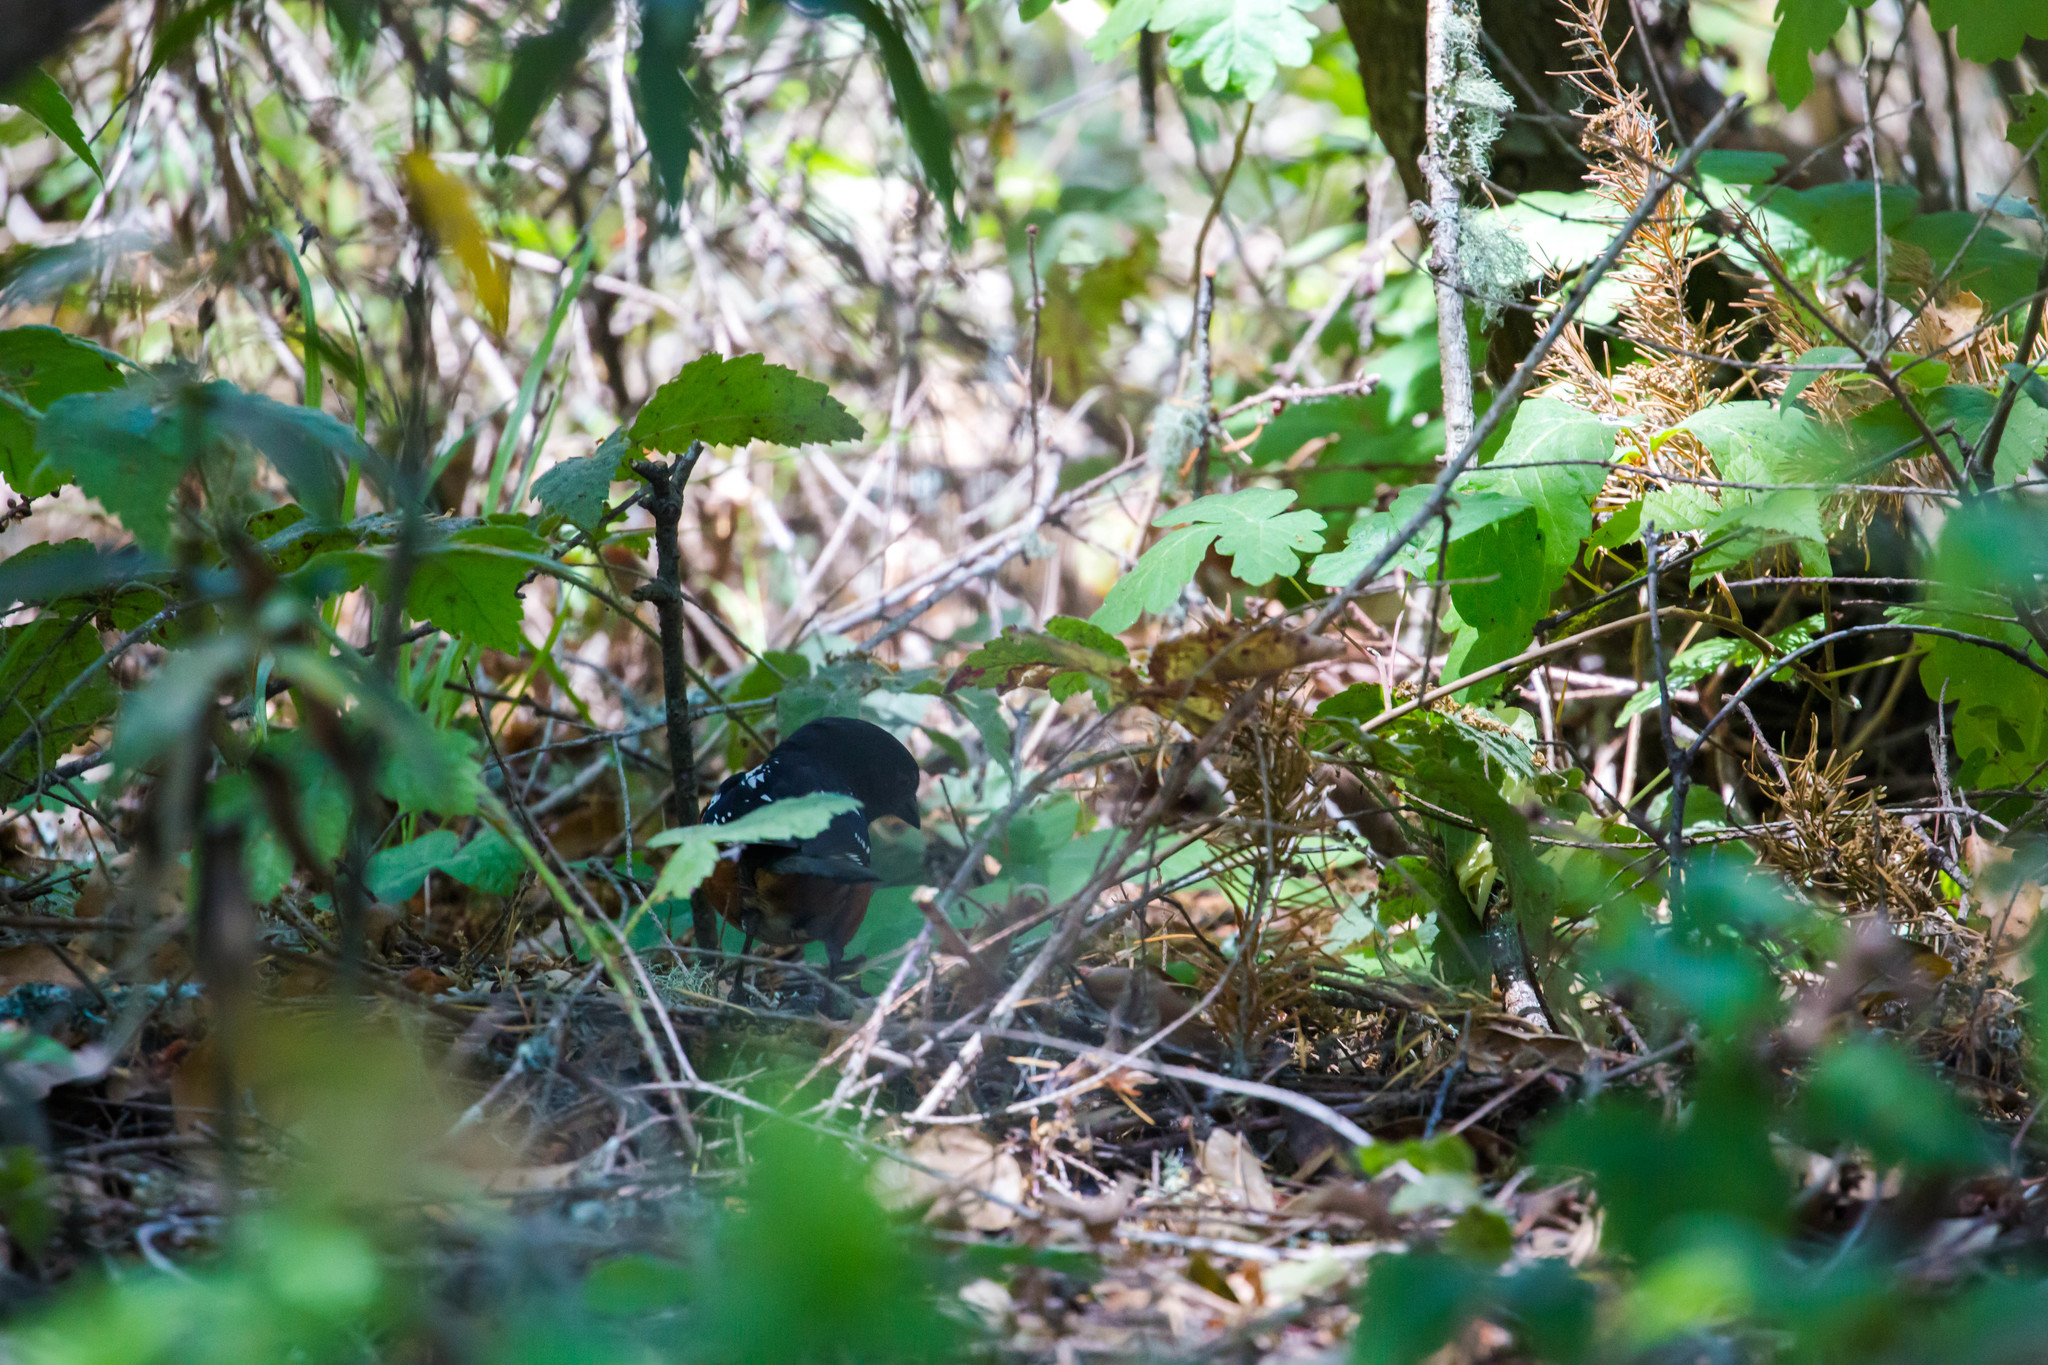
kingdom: Animalia
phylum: Chordata
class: Aves
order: Passeriformes
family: Passerellidae
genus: Pipilo
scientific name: Pipilo maculatus
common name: Spotted towhee
